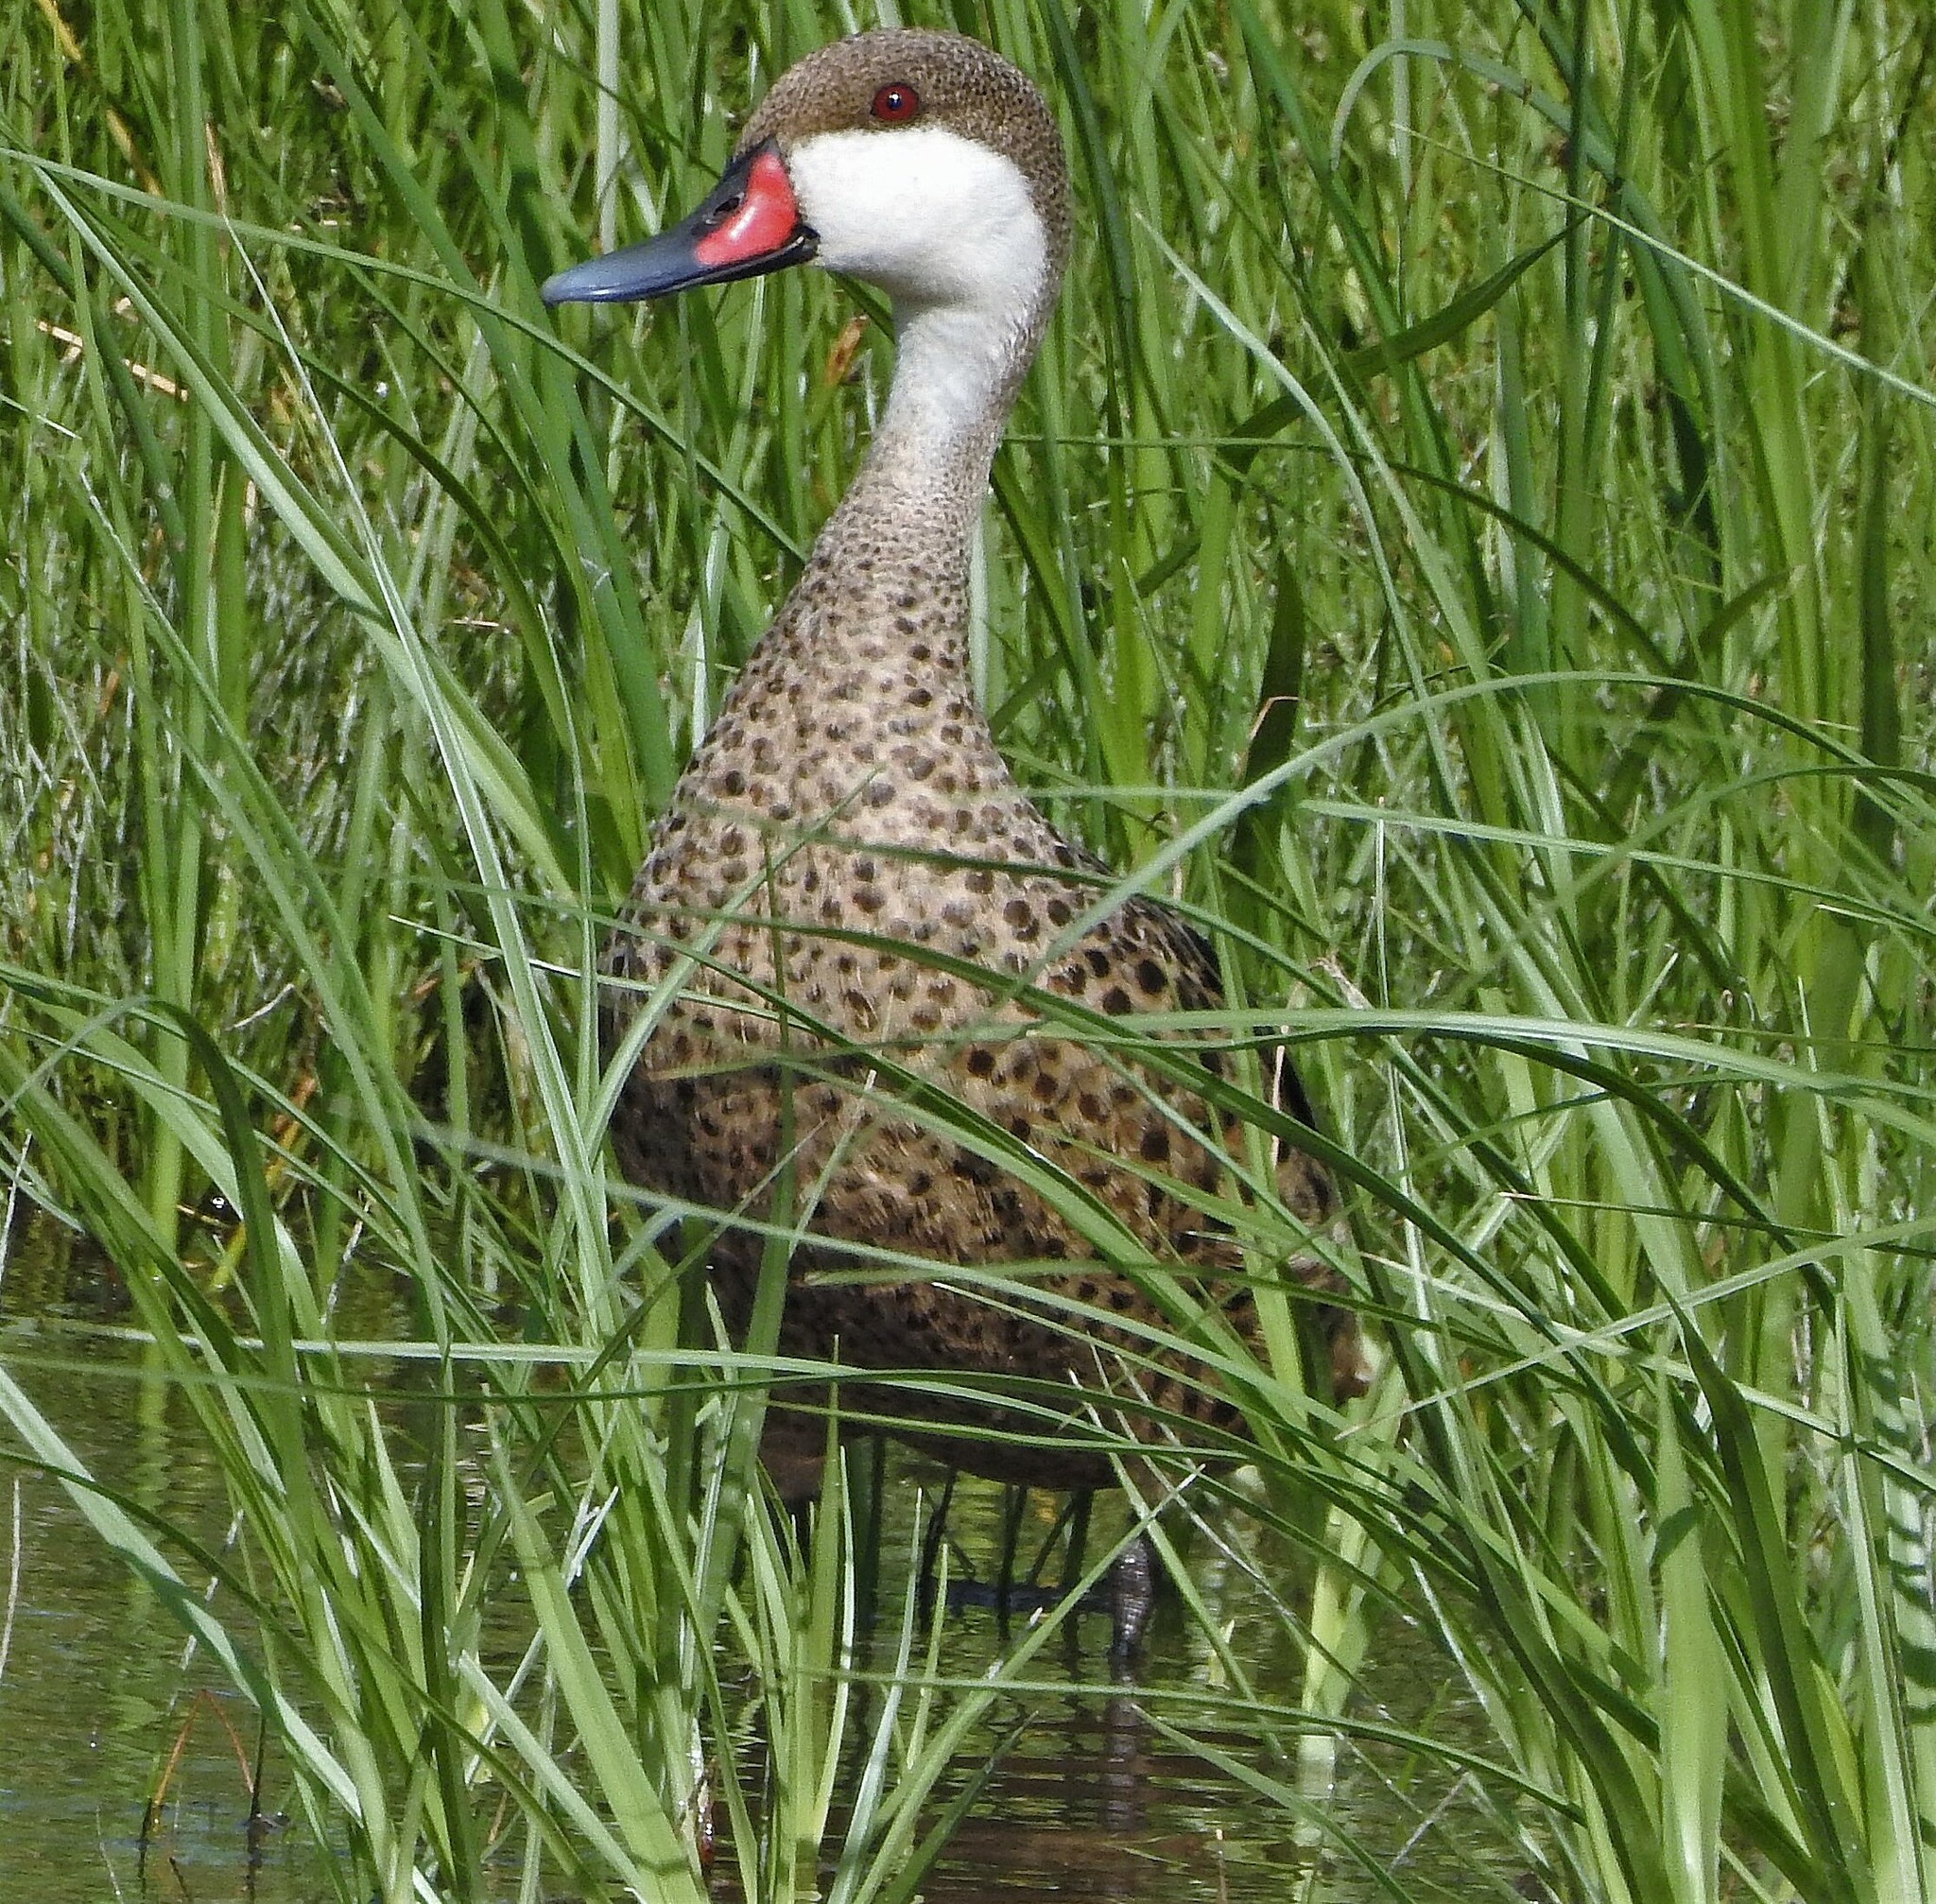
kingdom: Animalia
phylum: Chordata
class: Aves
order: Anseriformes
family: Anatidae
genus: Anas
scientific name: Anas bahamensis
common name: White-cheeked pintail
